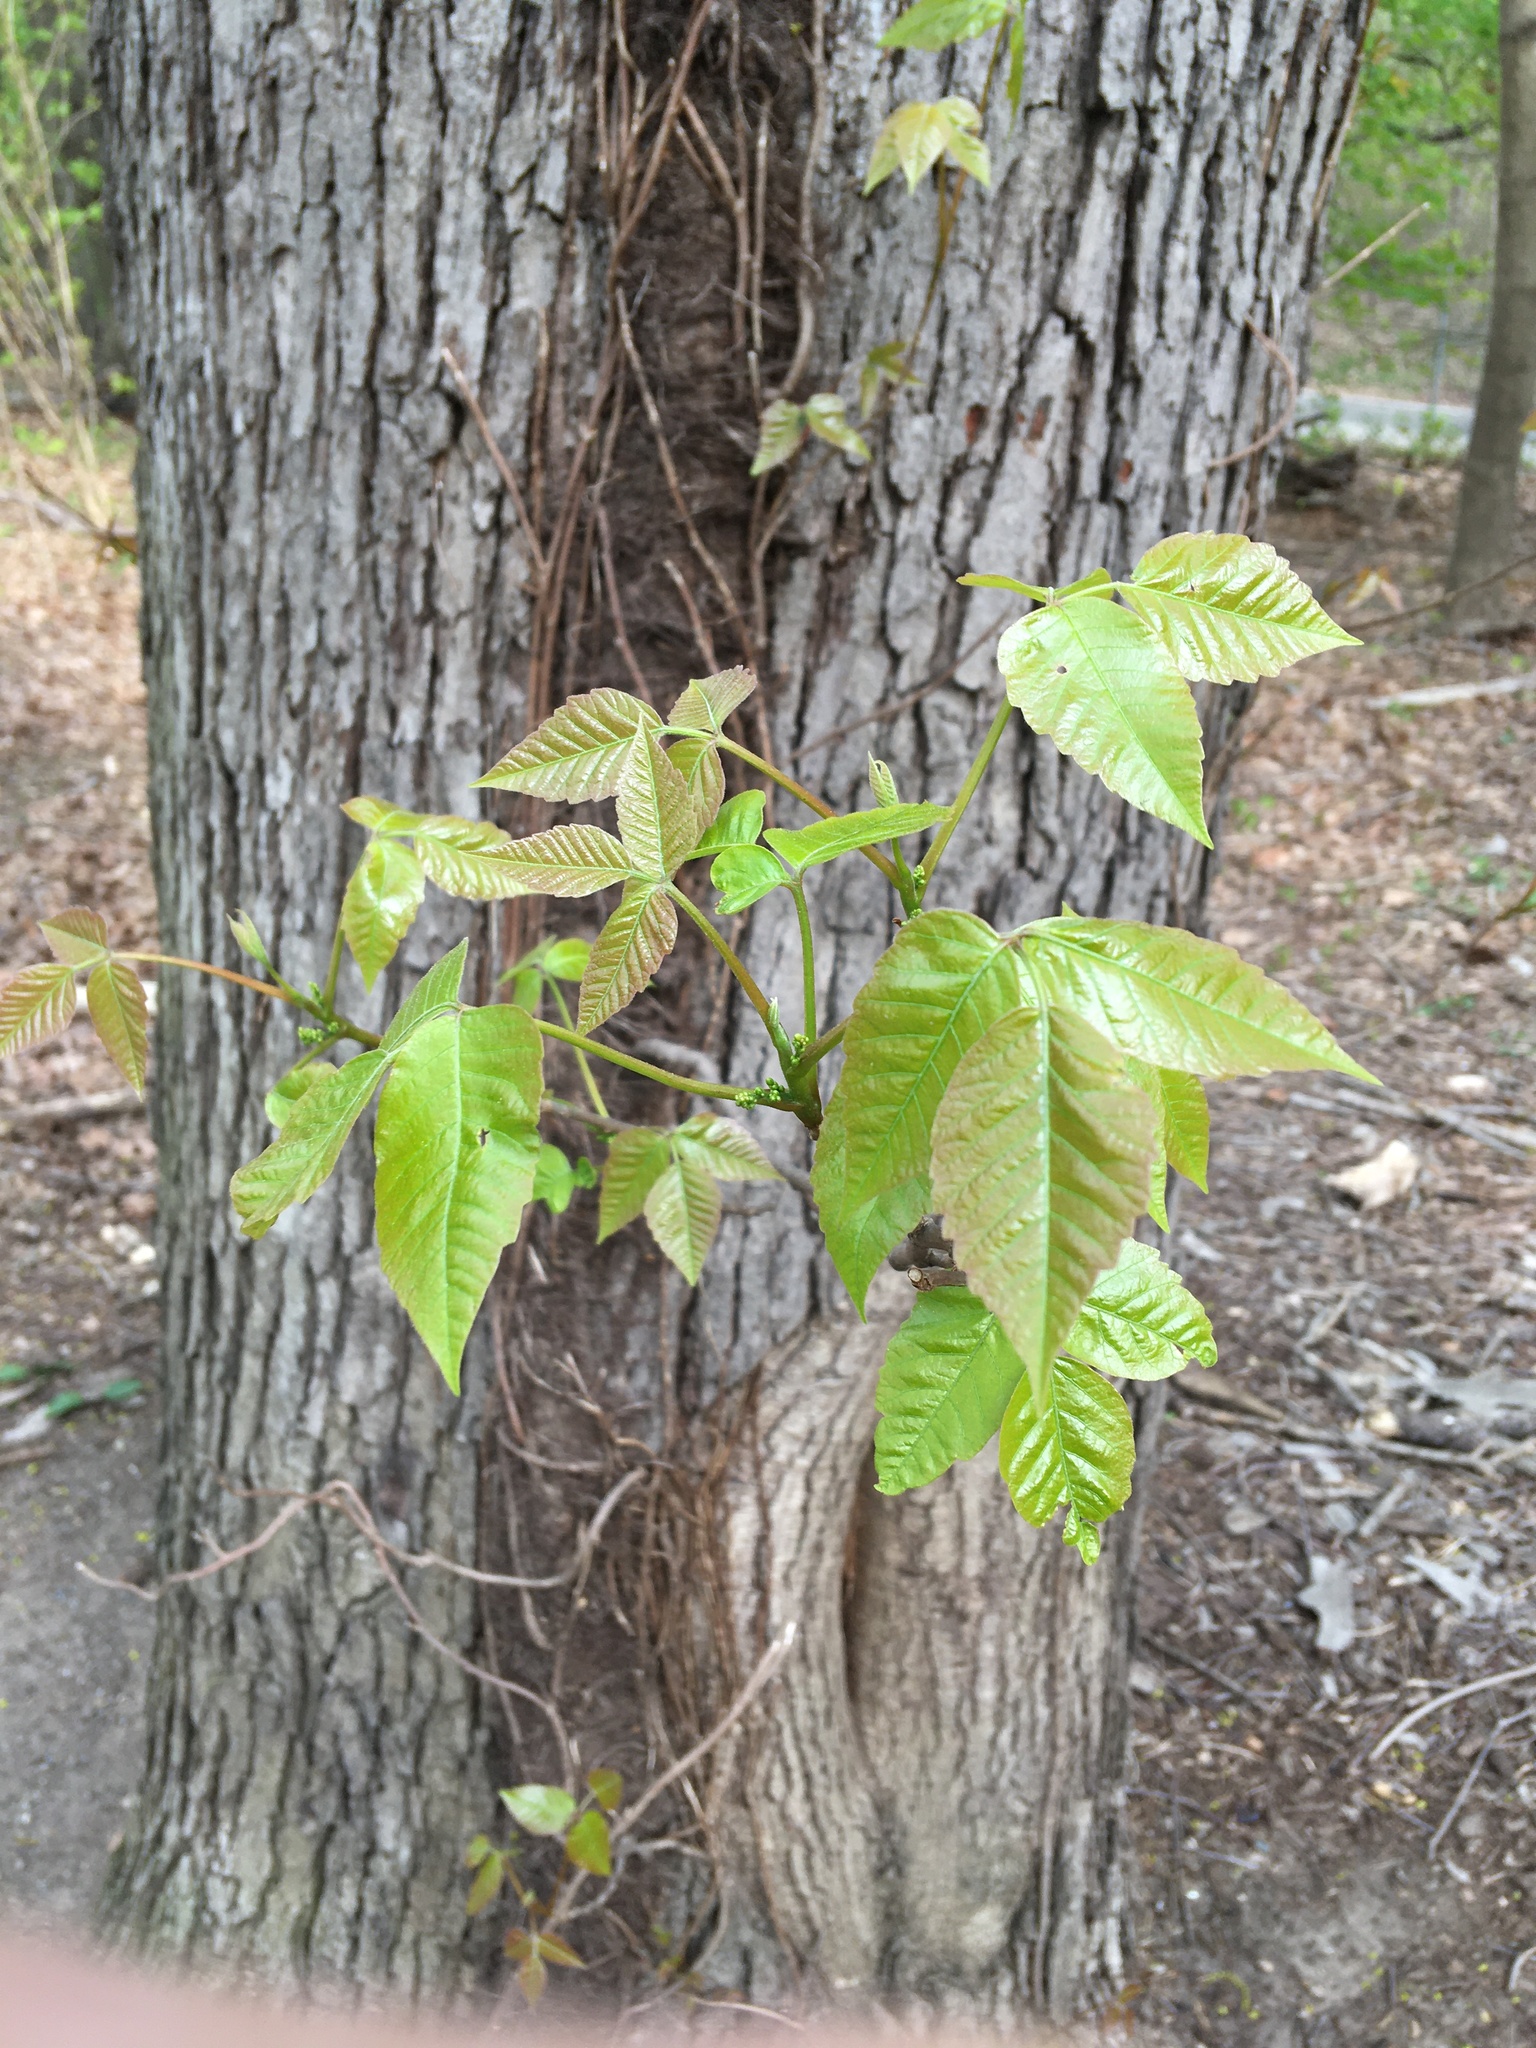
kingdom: Plantae
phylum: Tracheophyta
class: Magnoliopsida
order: Sapindales
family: Anacardiaceae
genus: Toxicodendron
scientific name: Toxicodendron radicans
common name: Poison ivy
